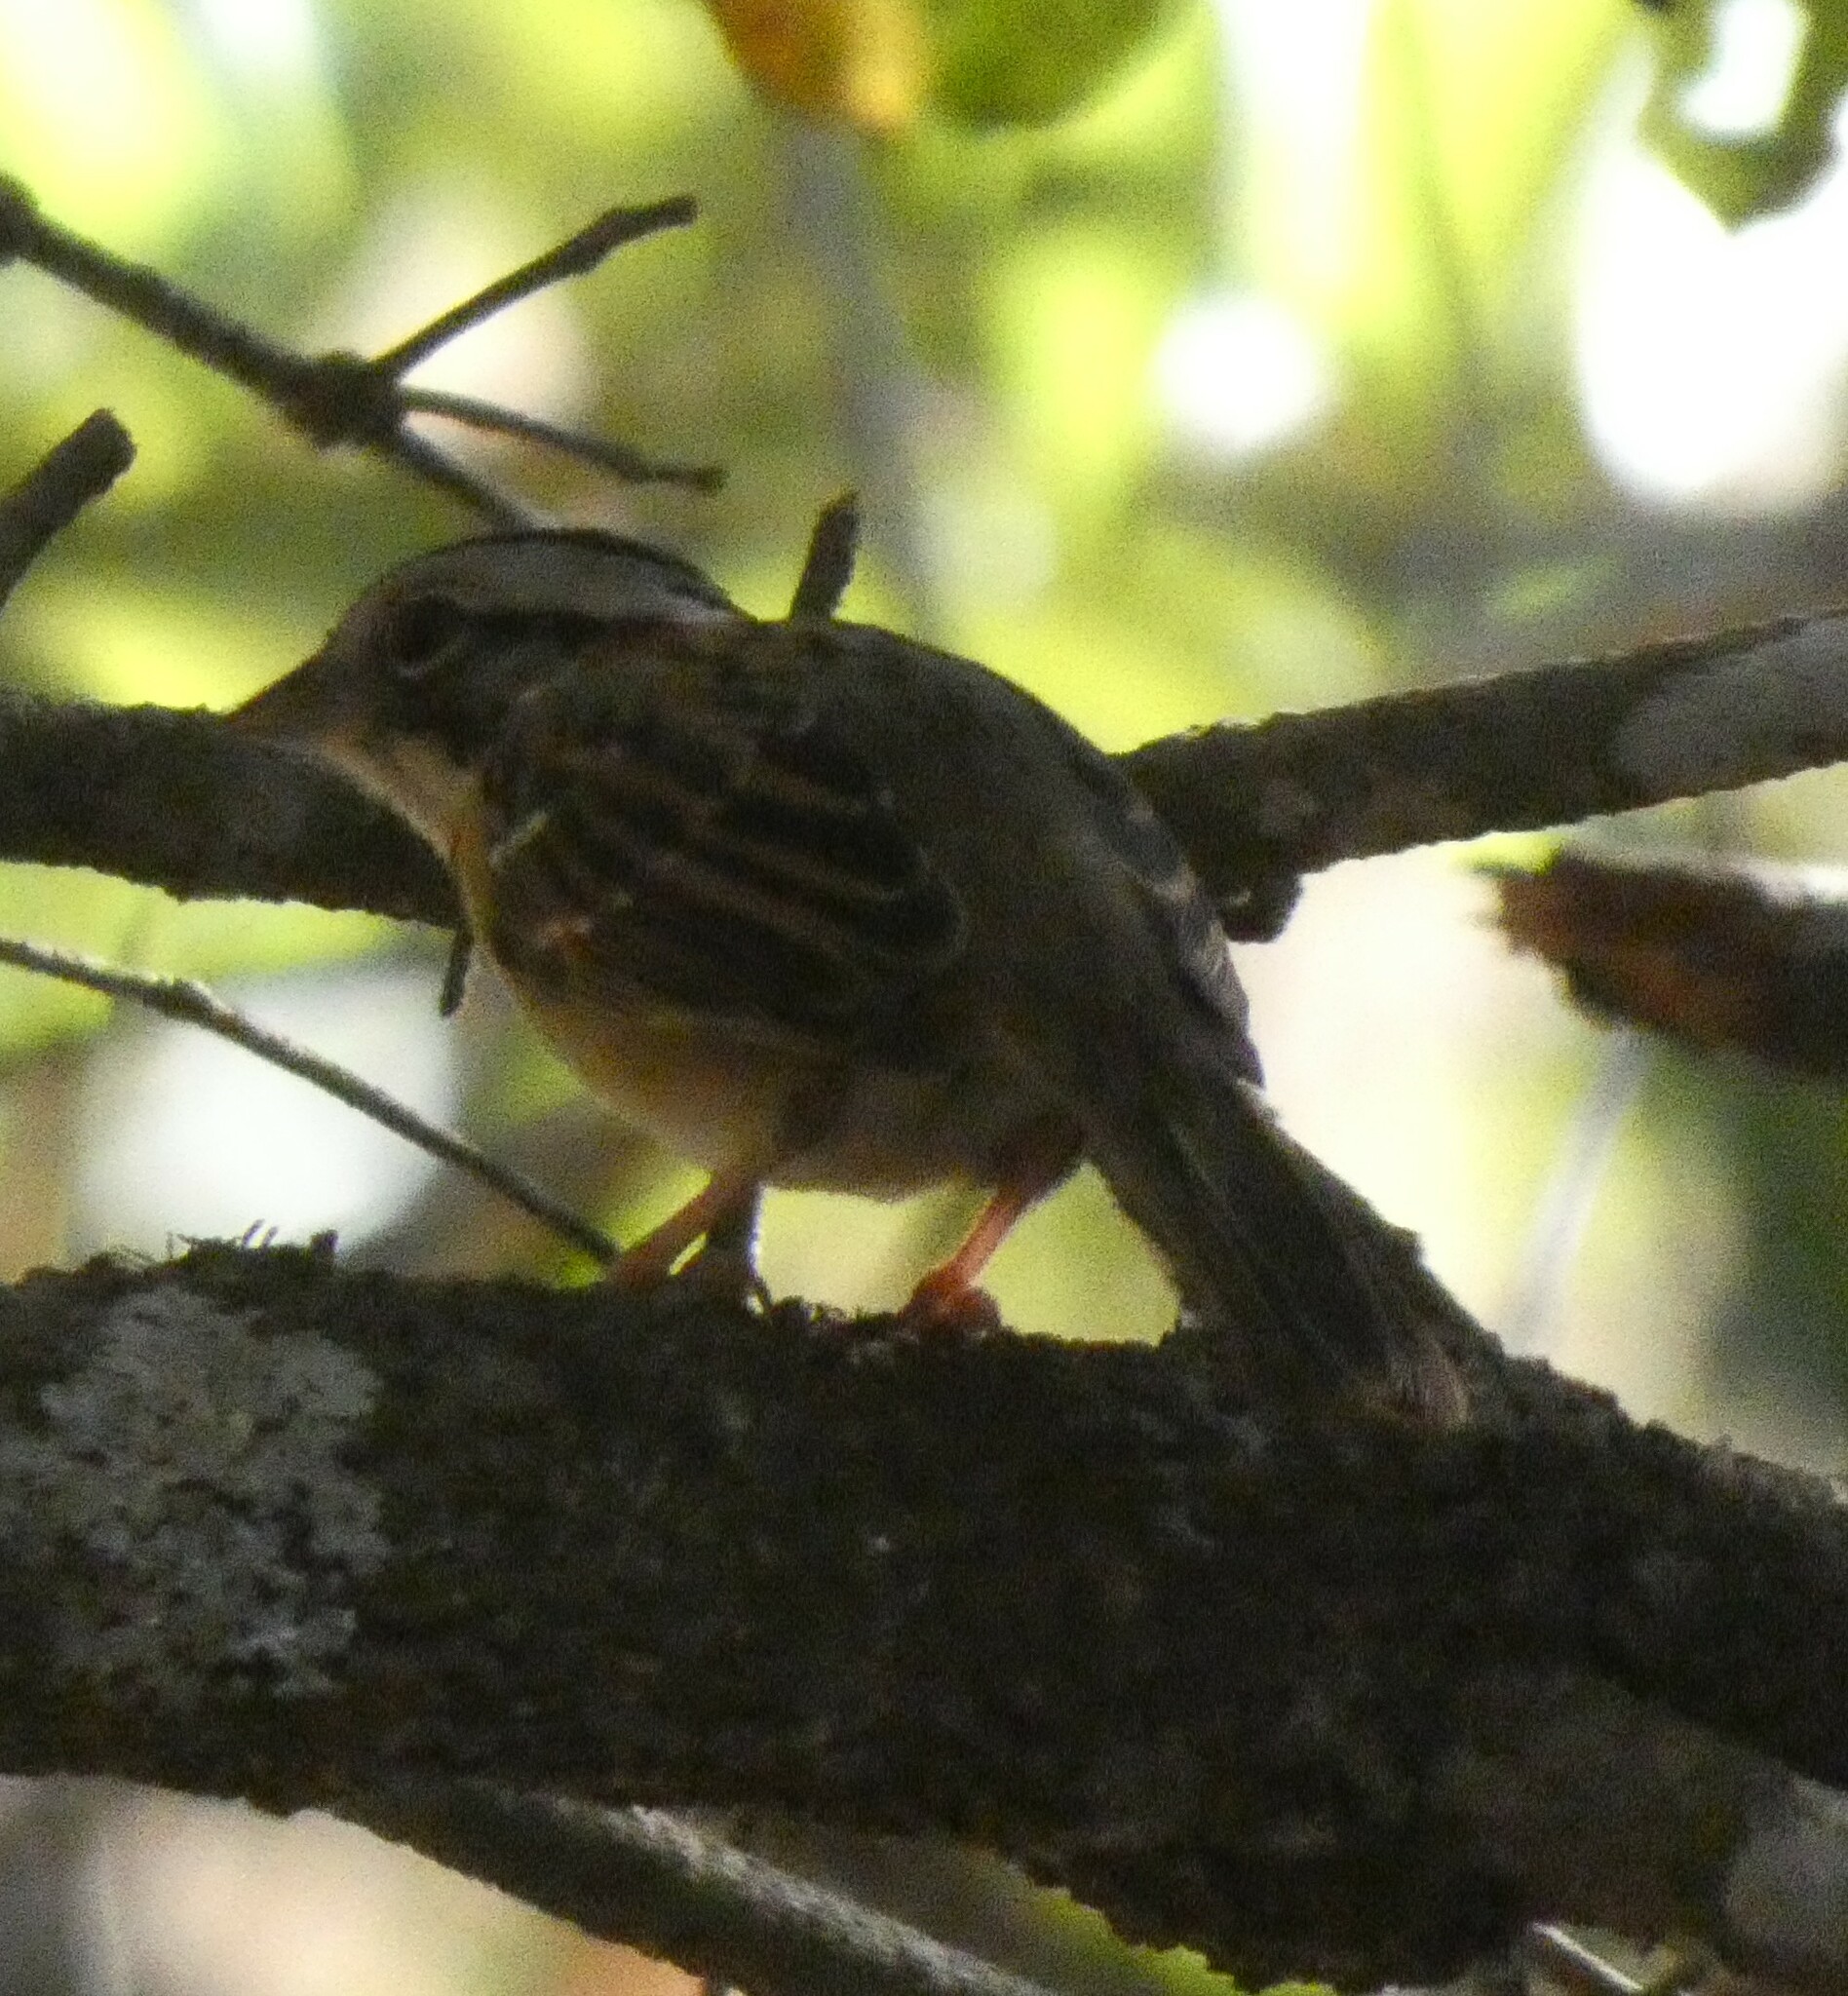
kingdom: Animalia
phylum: Chordata
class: Aves
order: Passeriformes
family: Passerellidae
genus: Zonotrichia
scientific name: Zonotrichia capensis
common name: Rufous-collared sparrow
